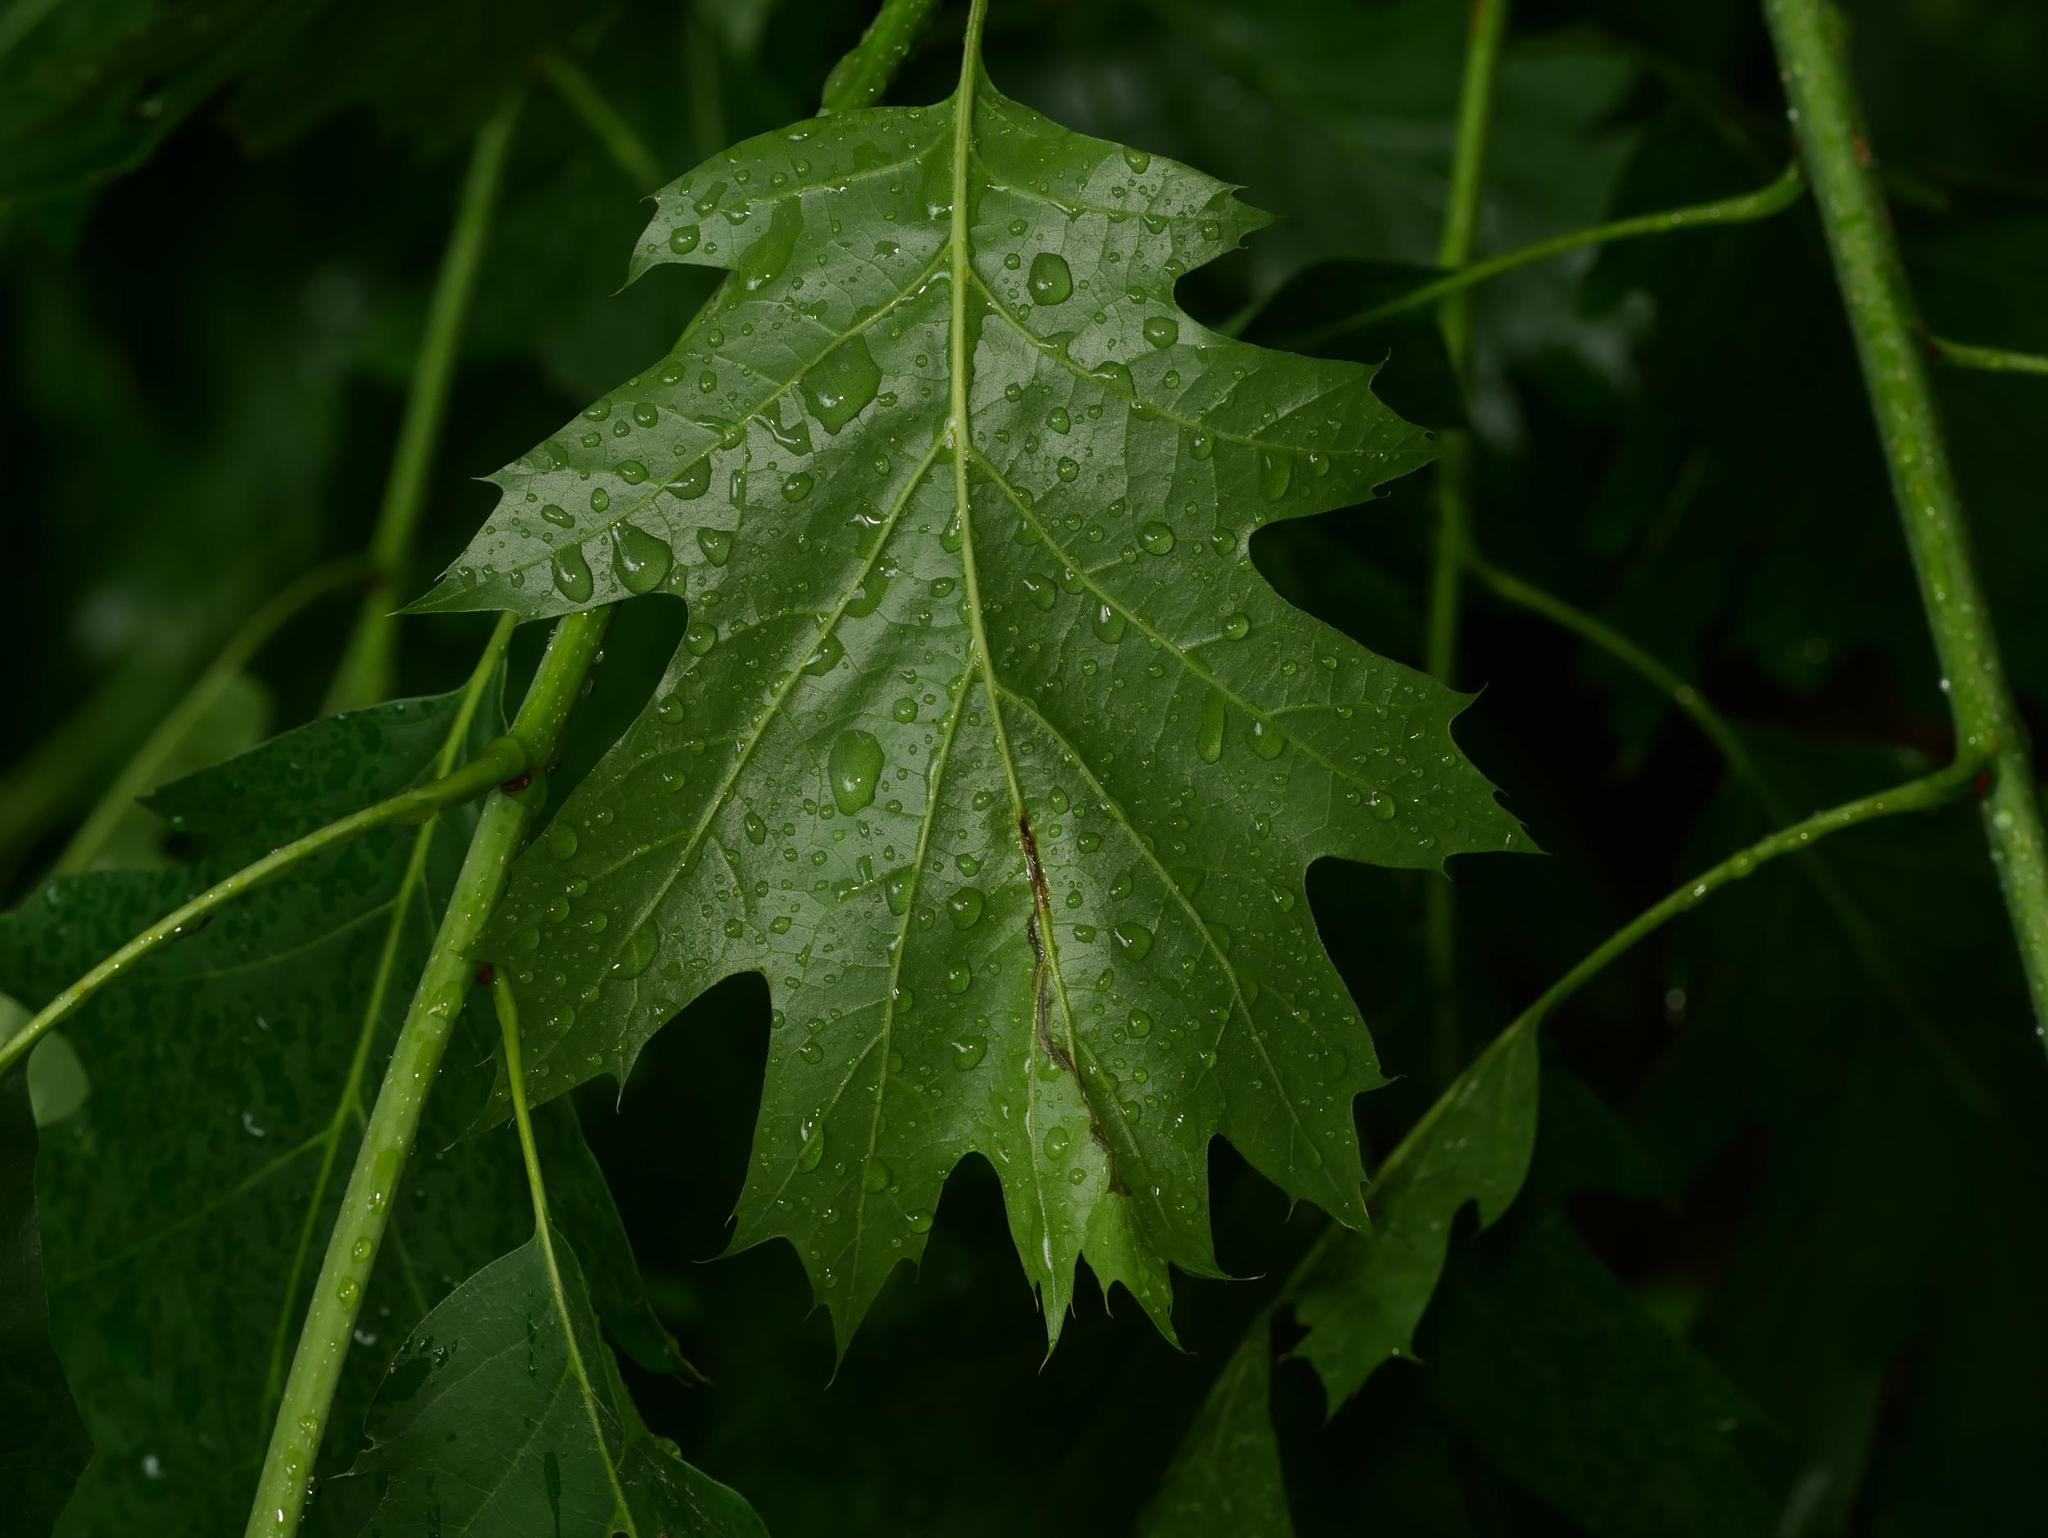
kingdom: Plantae
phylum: Tracheophyta
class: Magnoliopsida
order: Fagales
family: Fagaceae
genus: Quercus
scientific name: Quercus rubra
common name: Red oak
